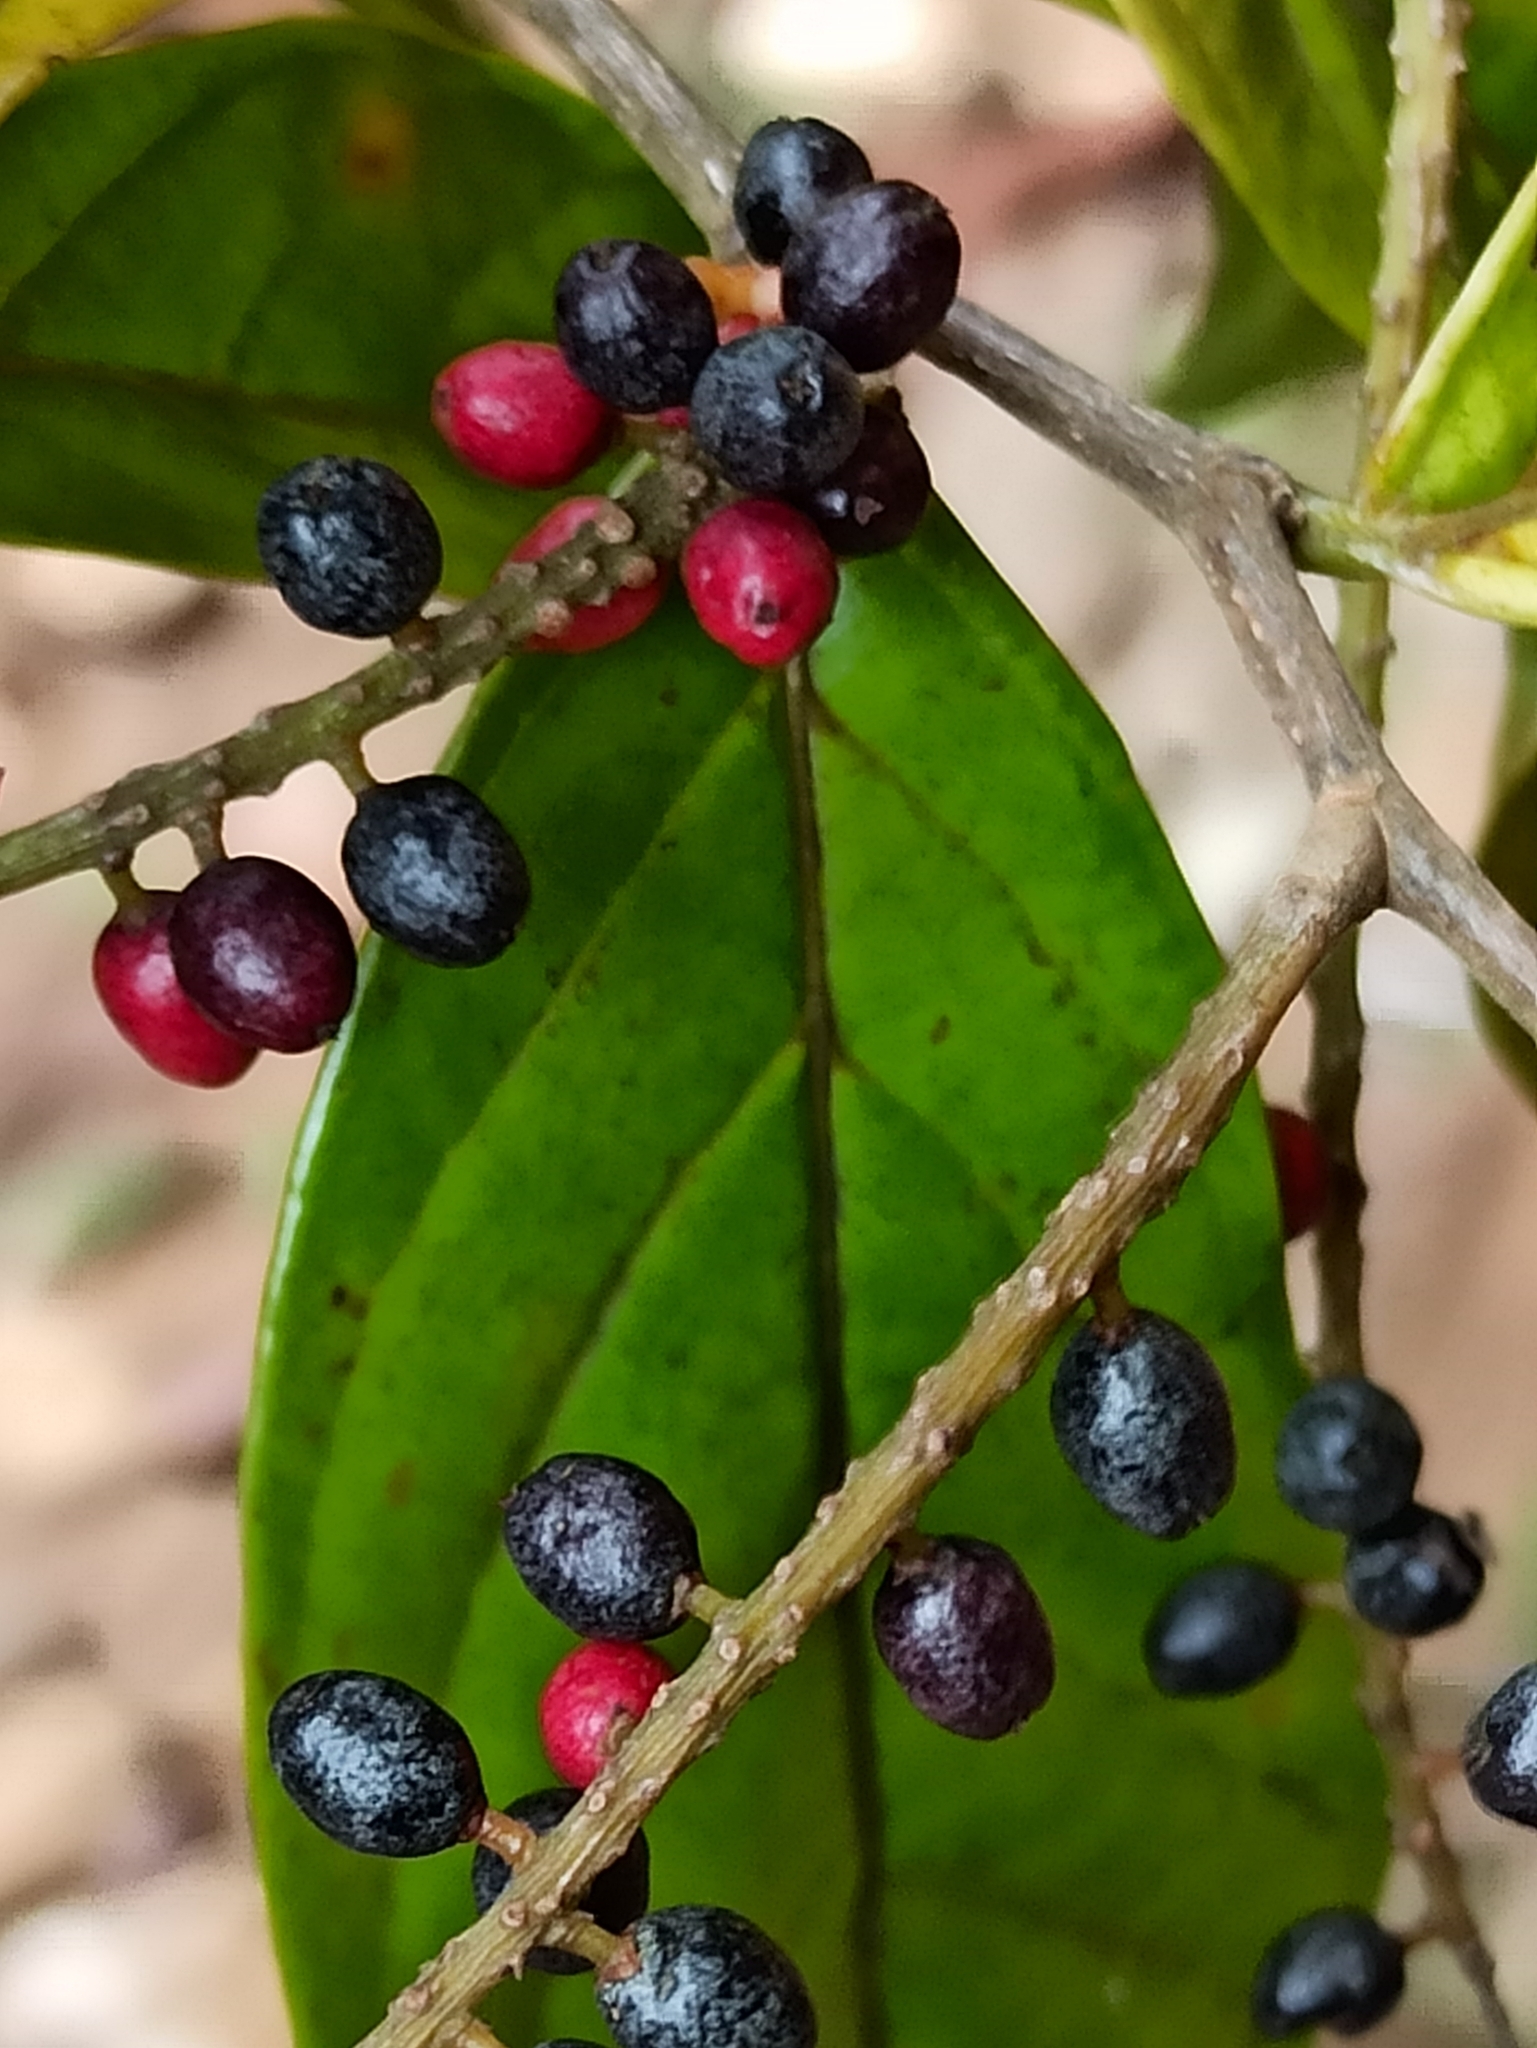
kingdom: Plantae
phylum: Tracheophyta
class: Magnoliopsida
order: Malpighiales
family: Phyllanthaceae
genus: Antidesma
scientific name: Antidesma montanum
